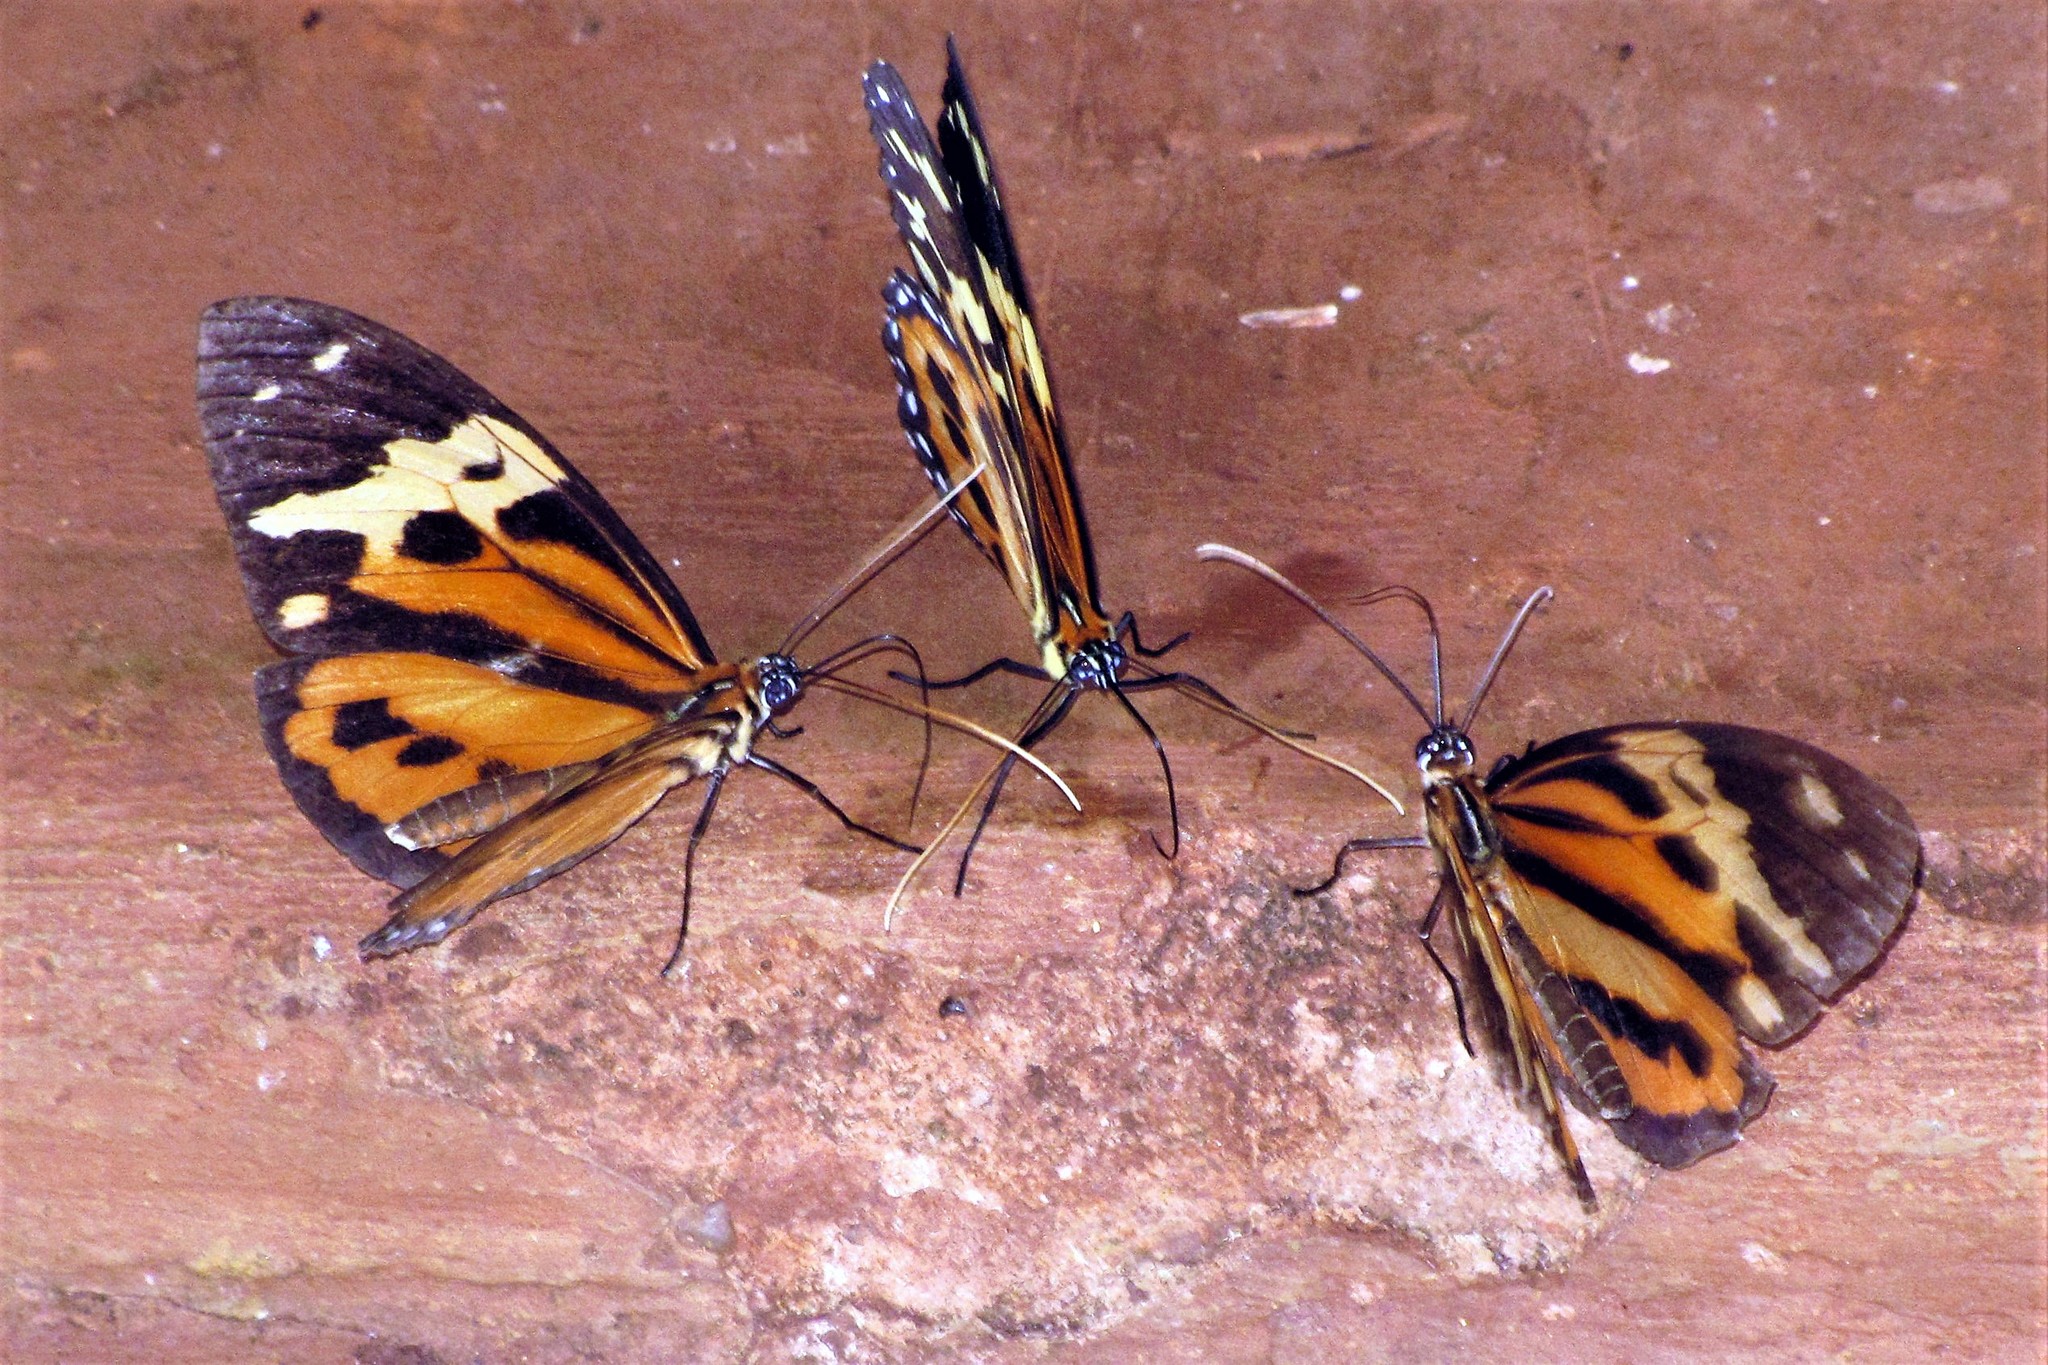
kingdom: Animalia
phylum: Arthropoda
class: Insecta
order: Lepidoptera
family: Nymphalidae
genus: Tithorea
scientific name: Tithorea harmonia
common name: Harmonia tigerwing
